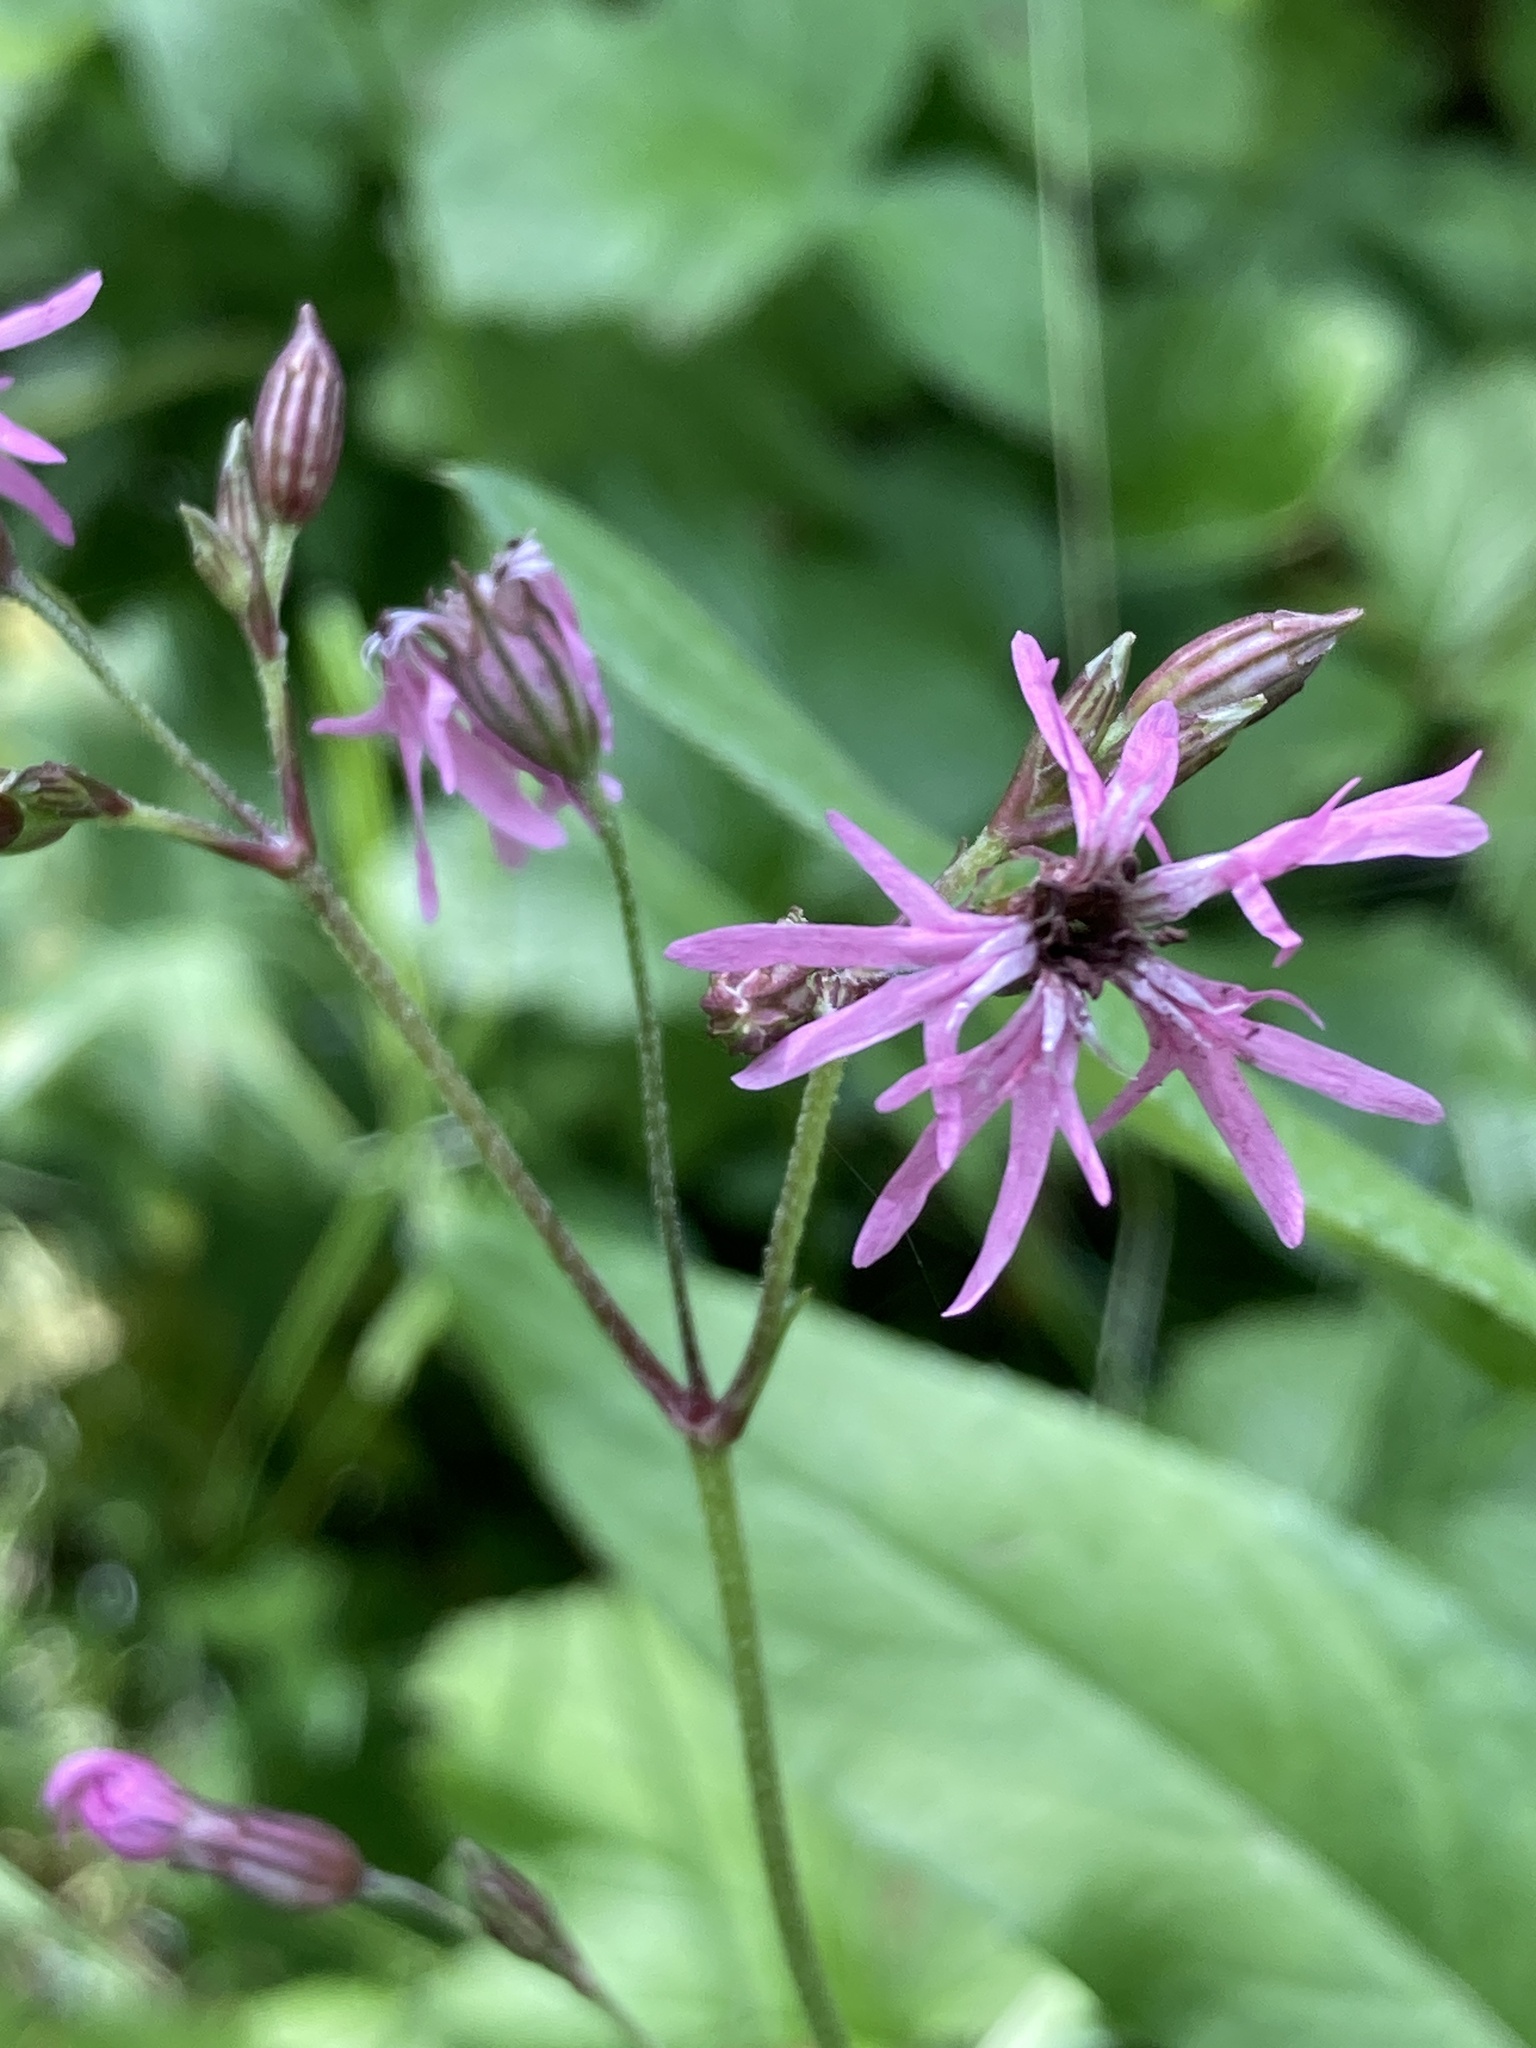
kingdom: Plantae
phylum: Tracheophyta
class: Magnoliopsida
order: Caryophyllales
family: Caryophyllaceae
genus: Silene
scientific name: Silene flos-cuculi
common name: Ragged-robin
